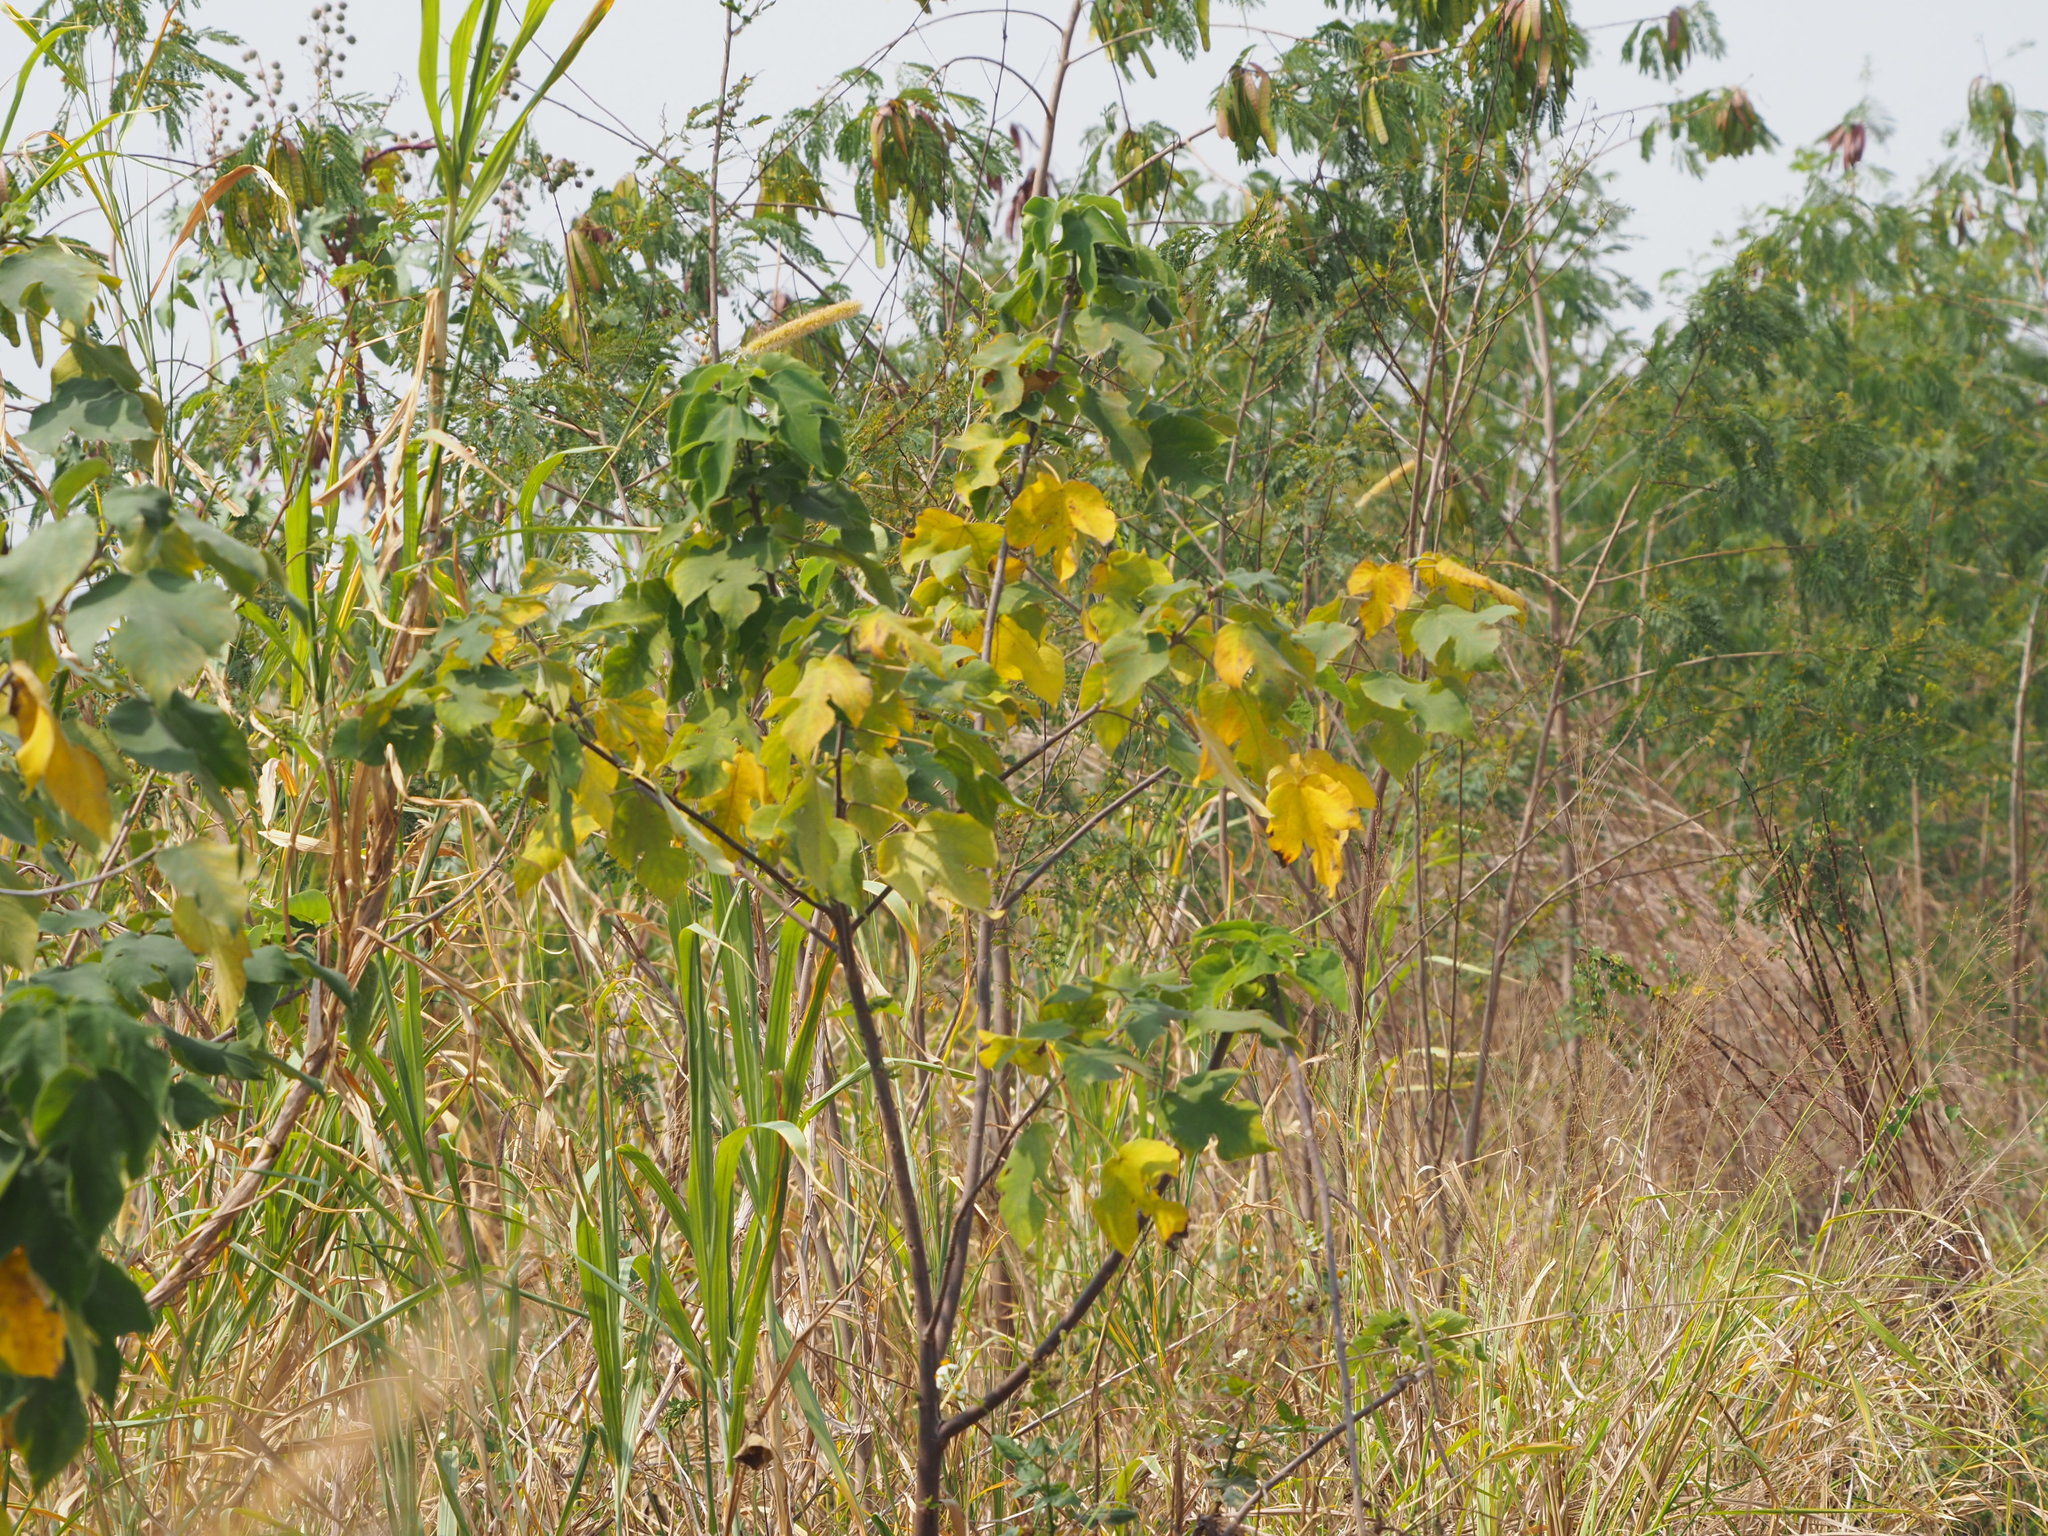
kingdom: Plantae
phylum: Tracheophyta
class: Magnoliopsida
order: Rosales
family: Moraceae
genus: Broussonetia
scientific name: Broussonetia papyrifera
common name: Paper mulberry
